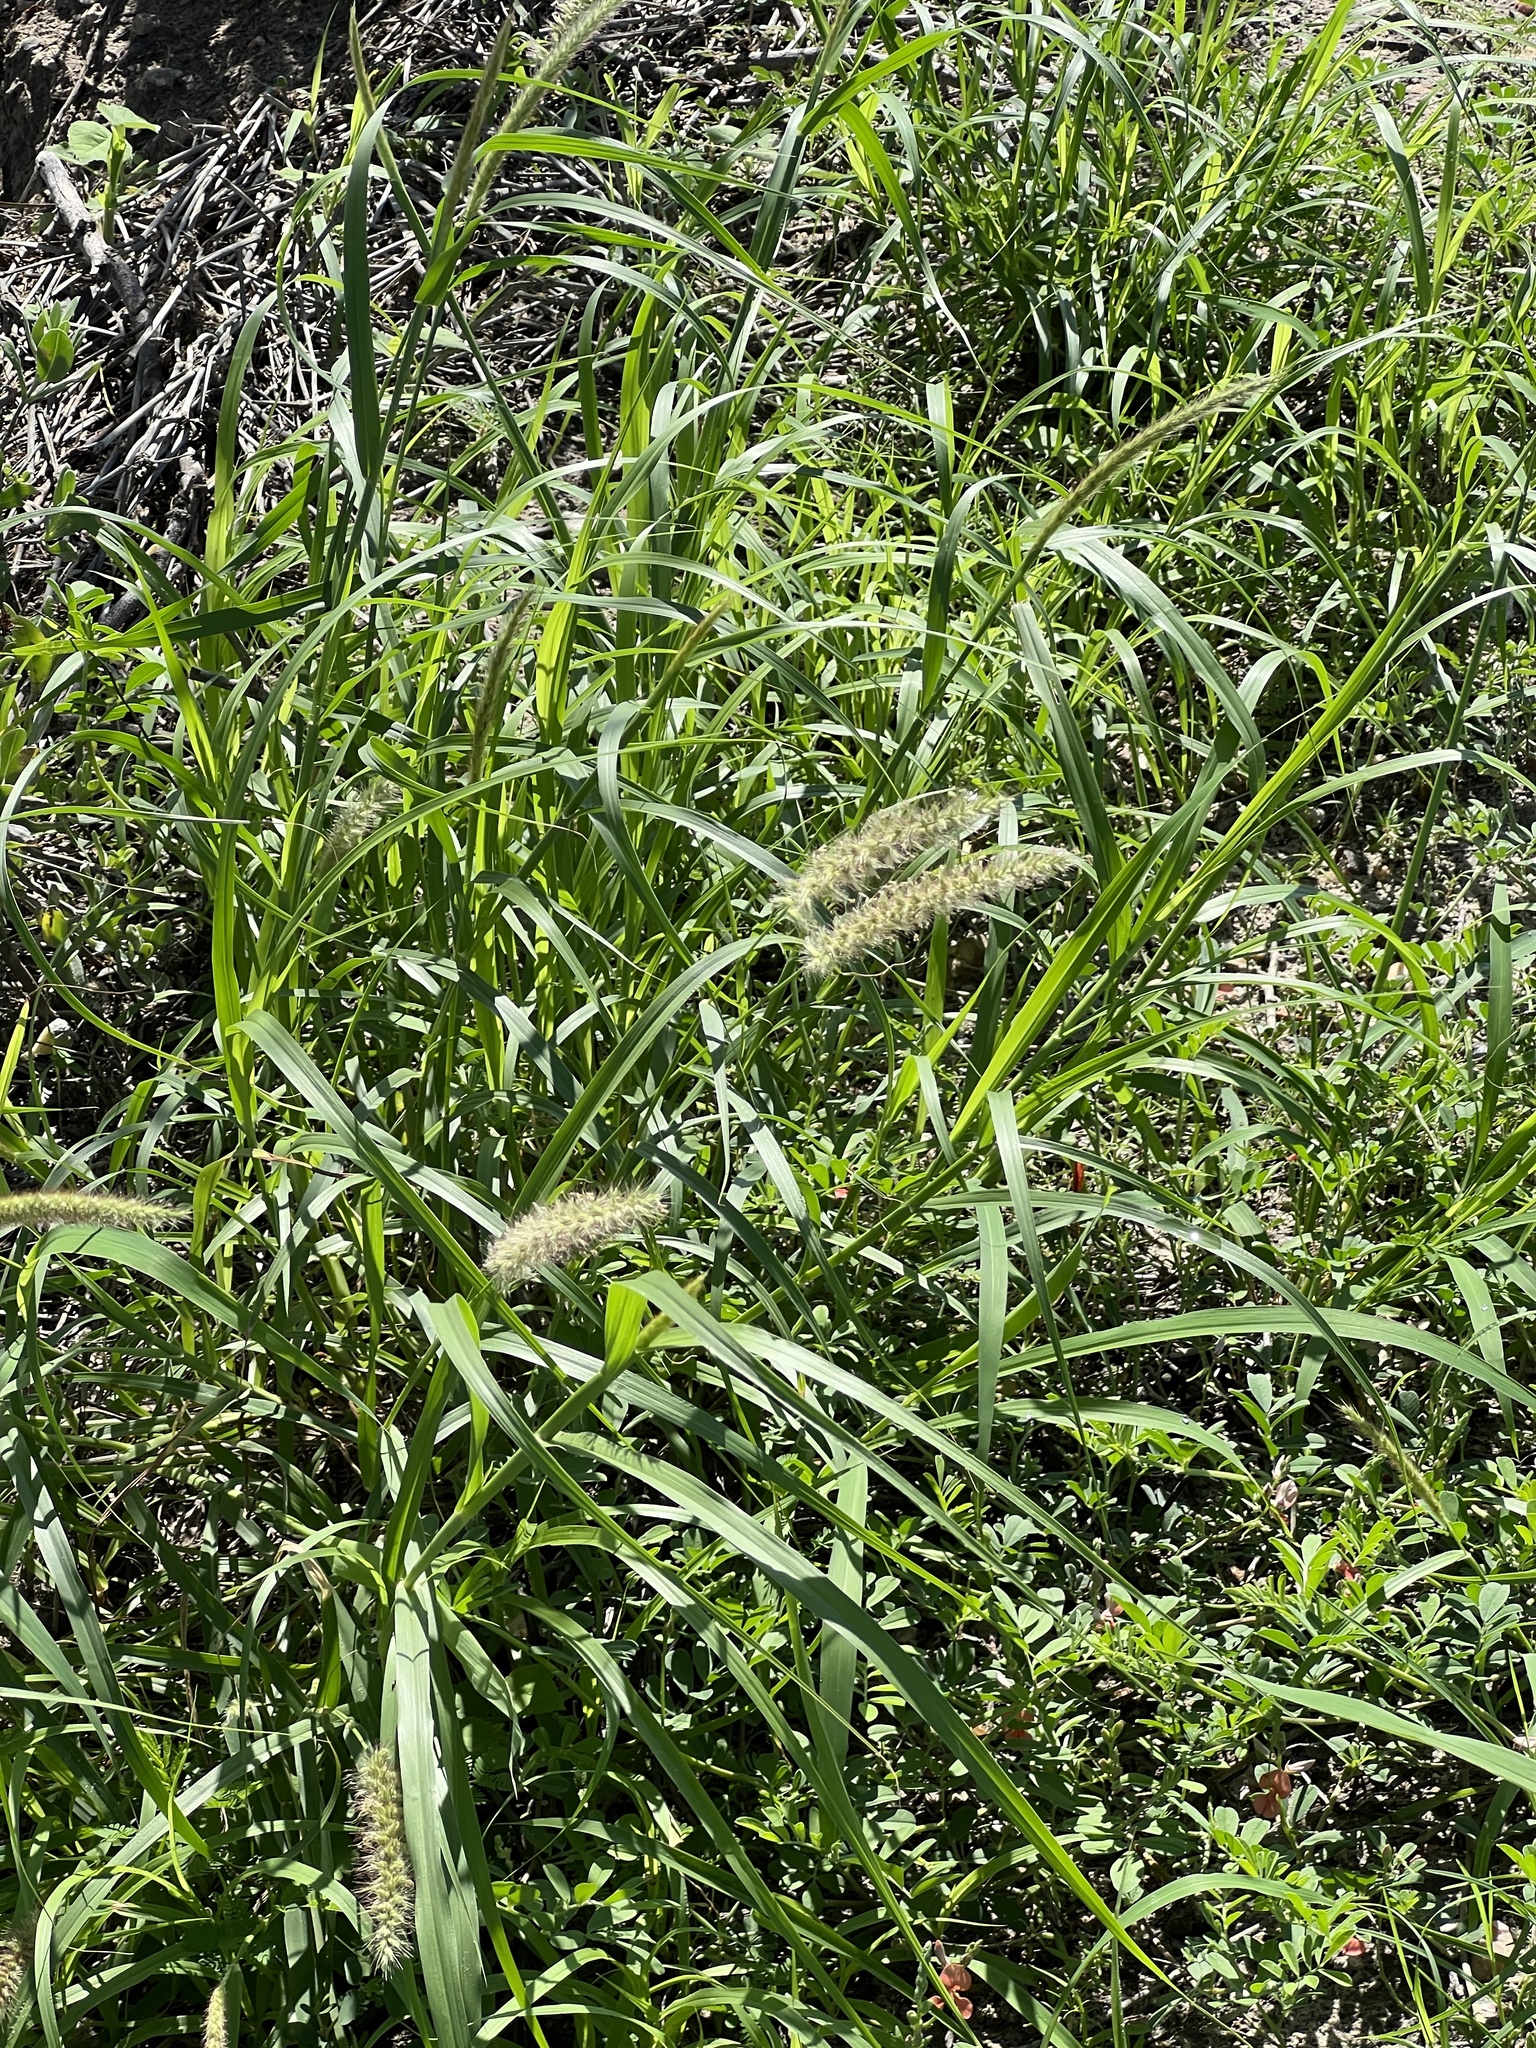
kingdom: Plantae
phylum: Tracheophyta
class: Liliopsida
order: Poales
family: Poaceae
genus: Cenchrus
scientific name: Cenchrus ciliaris
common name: Buffelgrass
